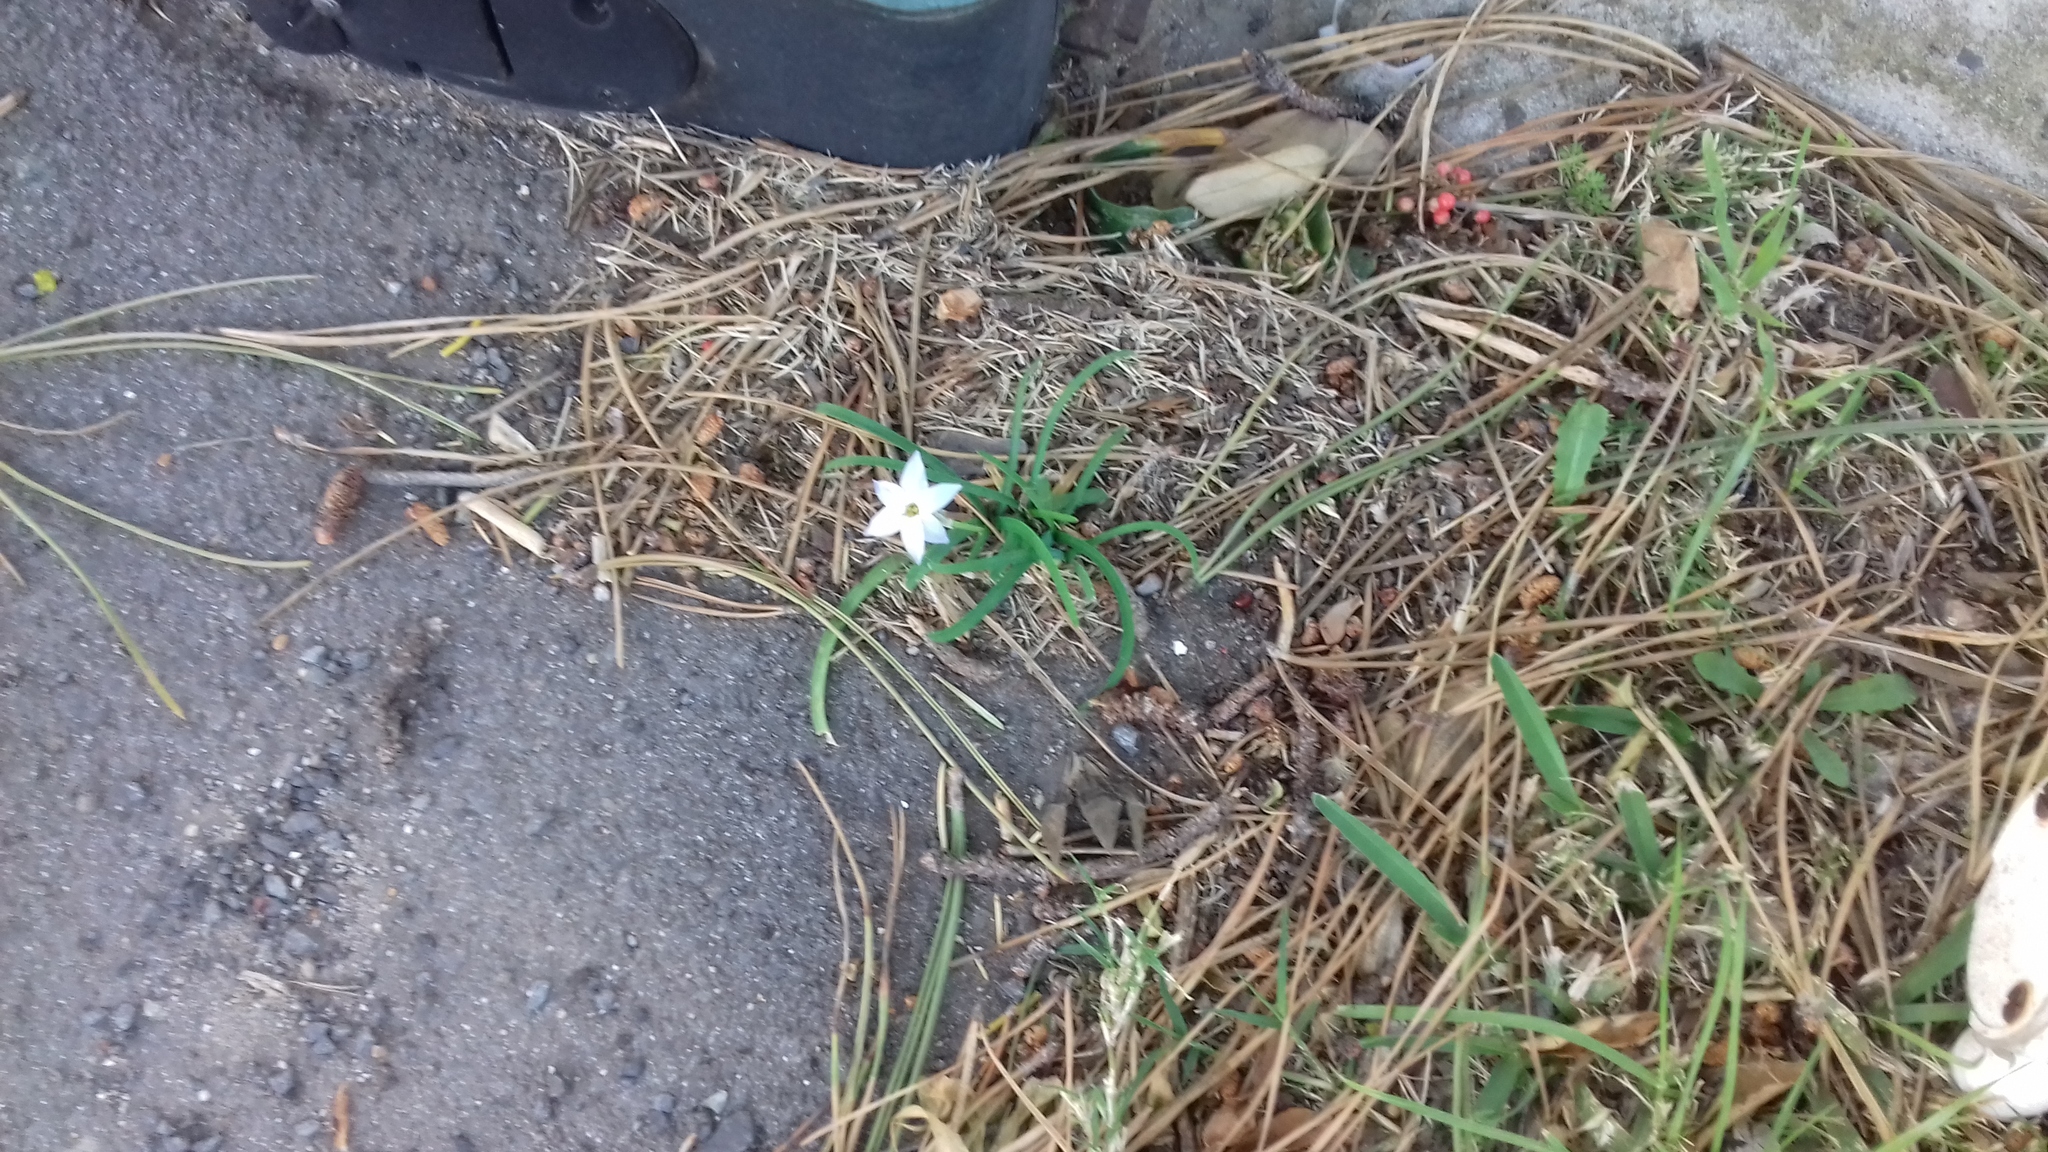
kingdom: Plantae
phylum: Tracheophyta
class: Liliopsida
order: Asparagales
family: Amaryllidaceae
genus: Ipheion
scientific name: Ipheion uniflorum
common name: Spring starflower
